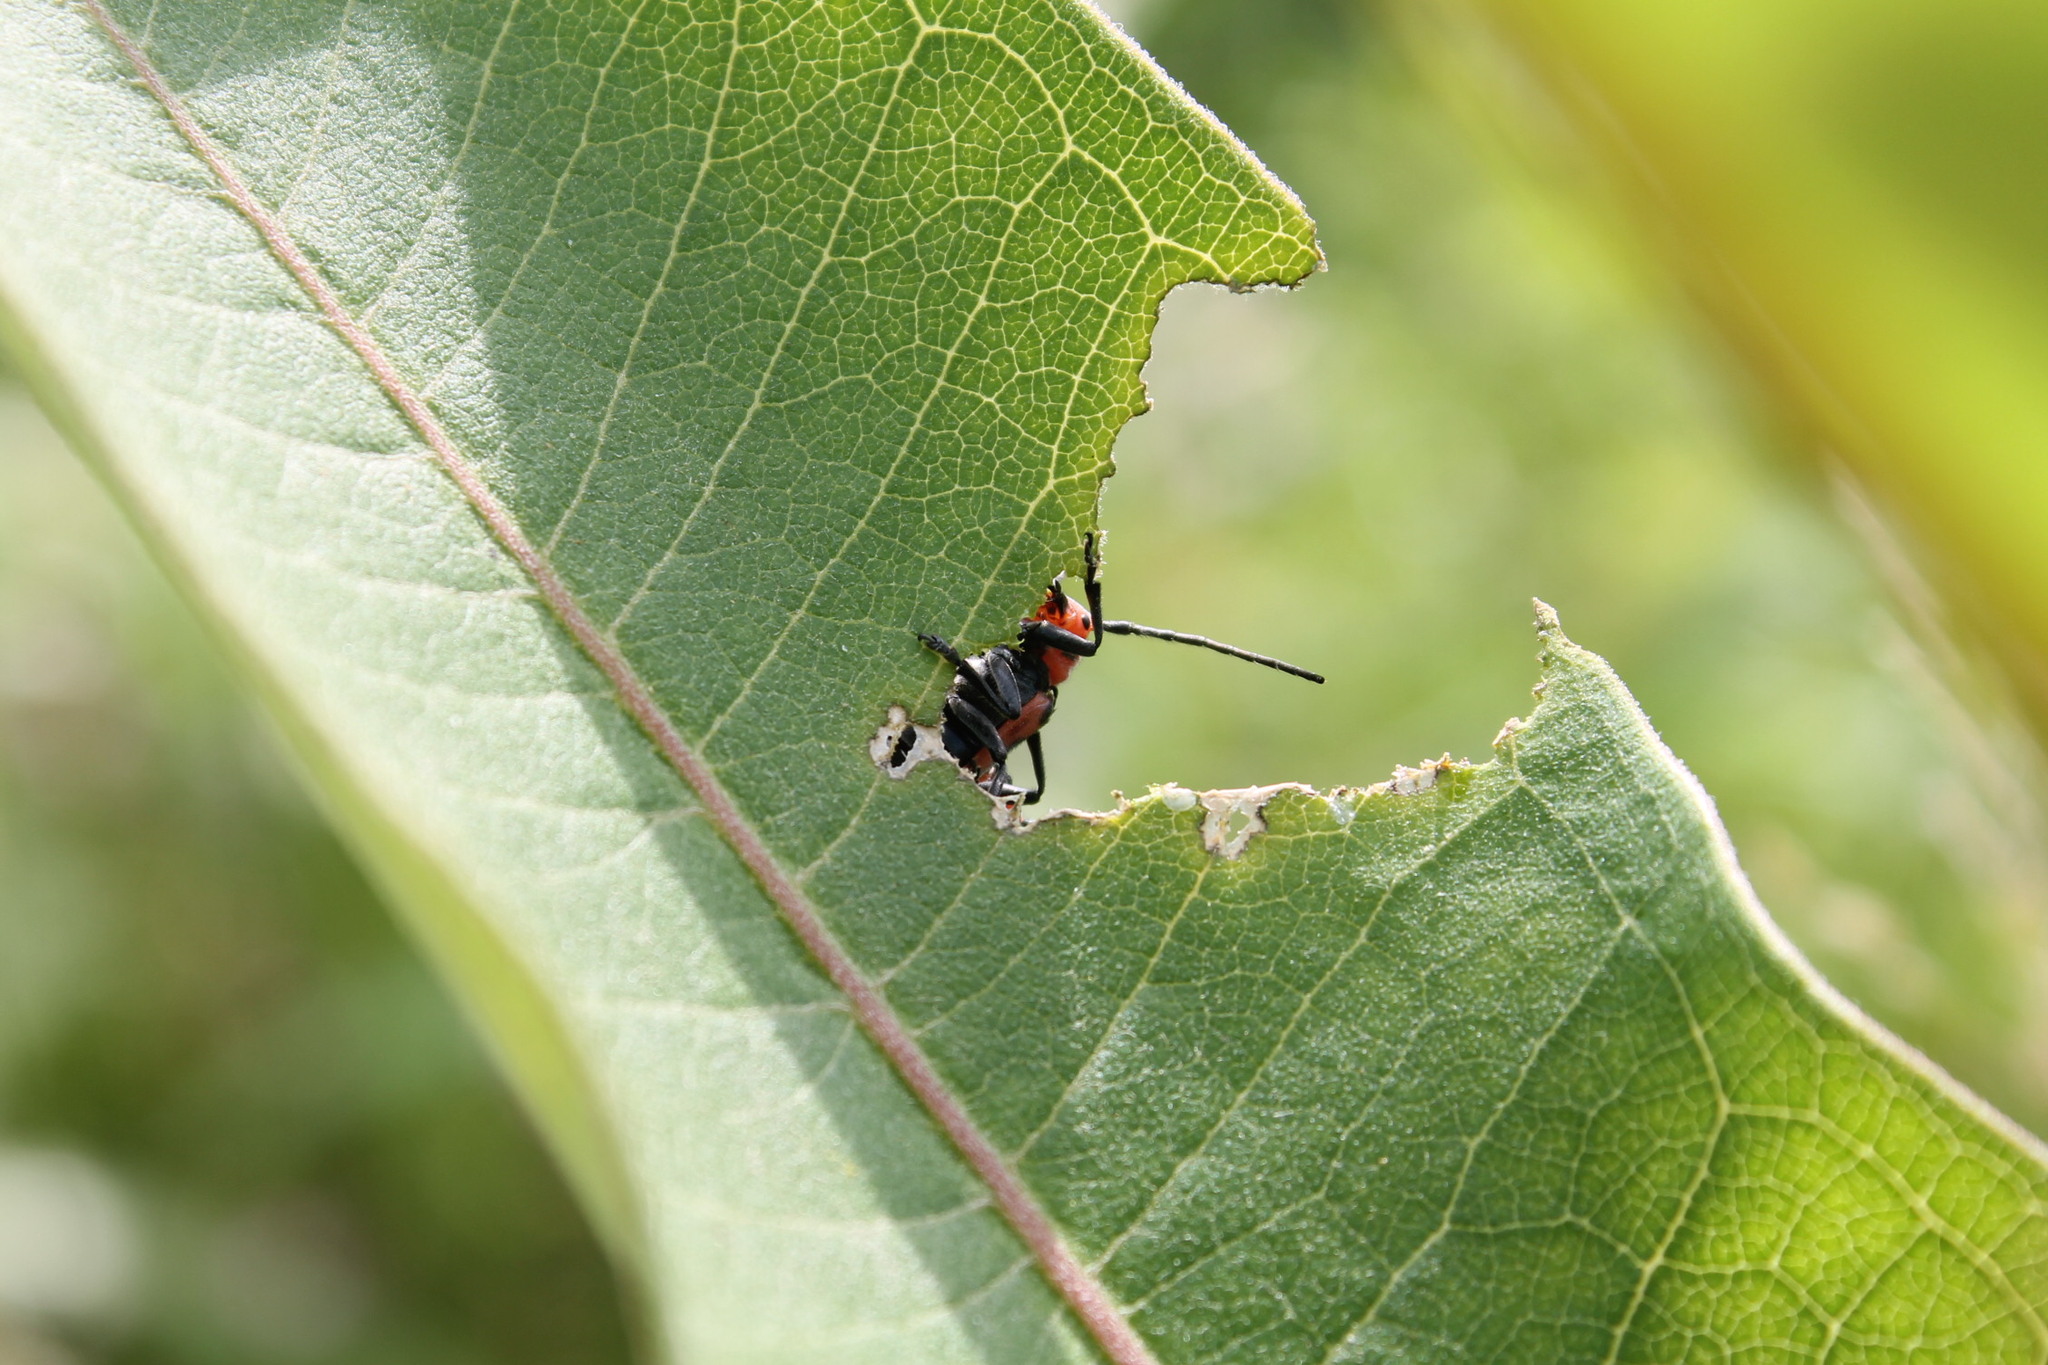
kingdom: Animalia
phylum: Arthropoda
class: Insecta
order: Coleoptera
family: Cerambycidae
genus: Tetraopes
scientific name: Tetraopes tetrophthalmus
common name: Red milkweed beetle
